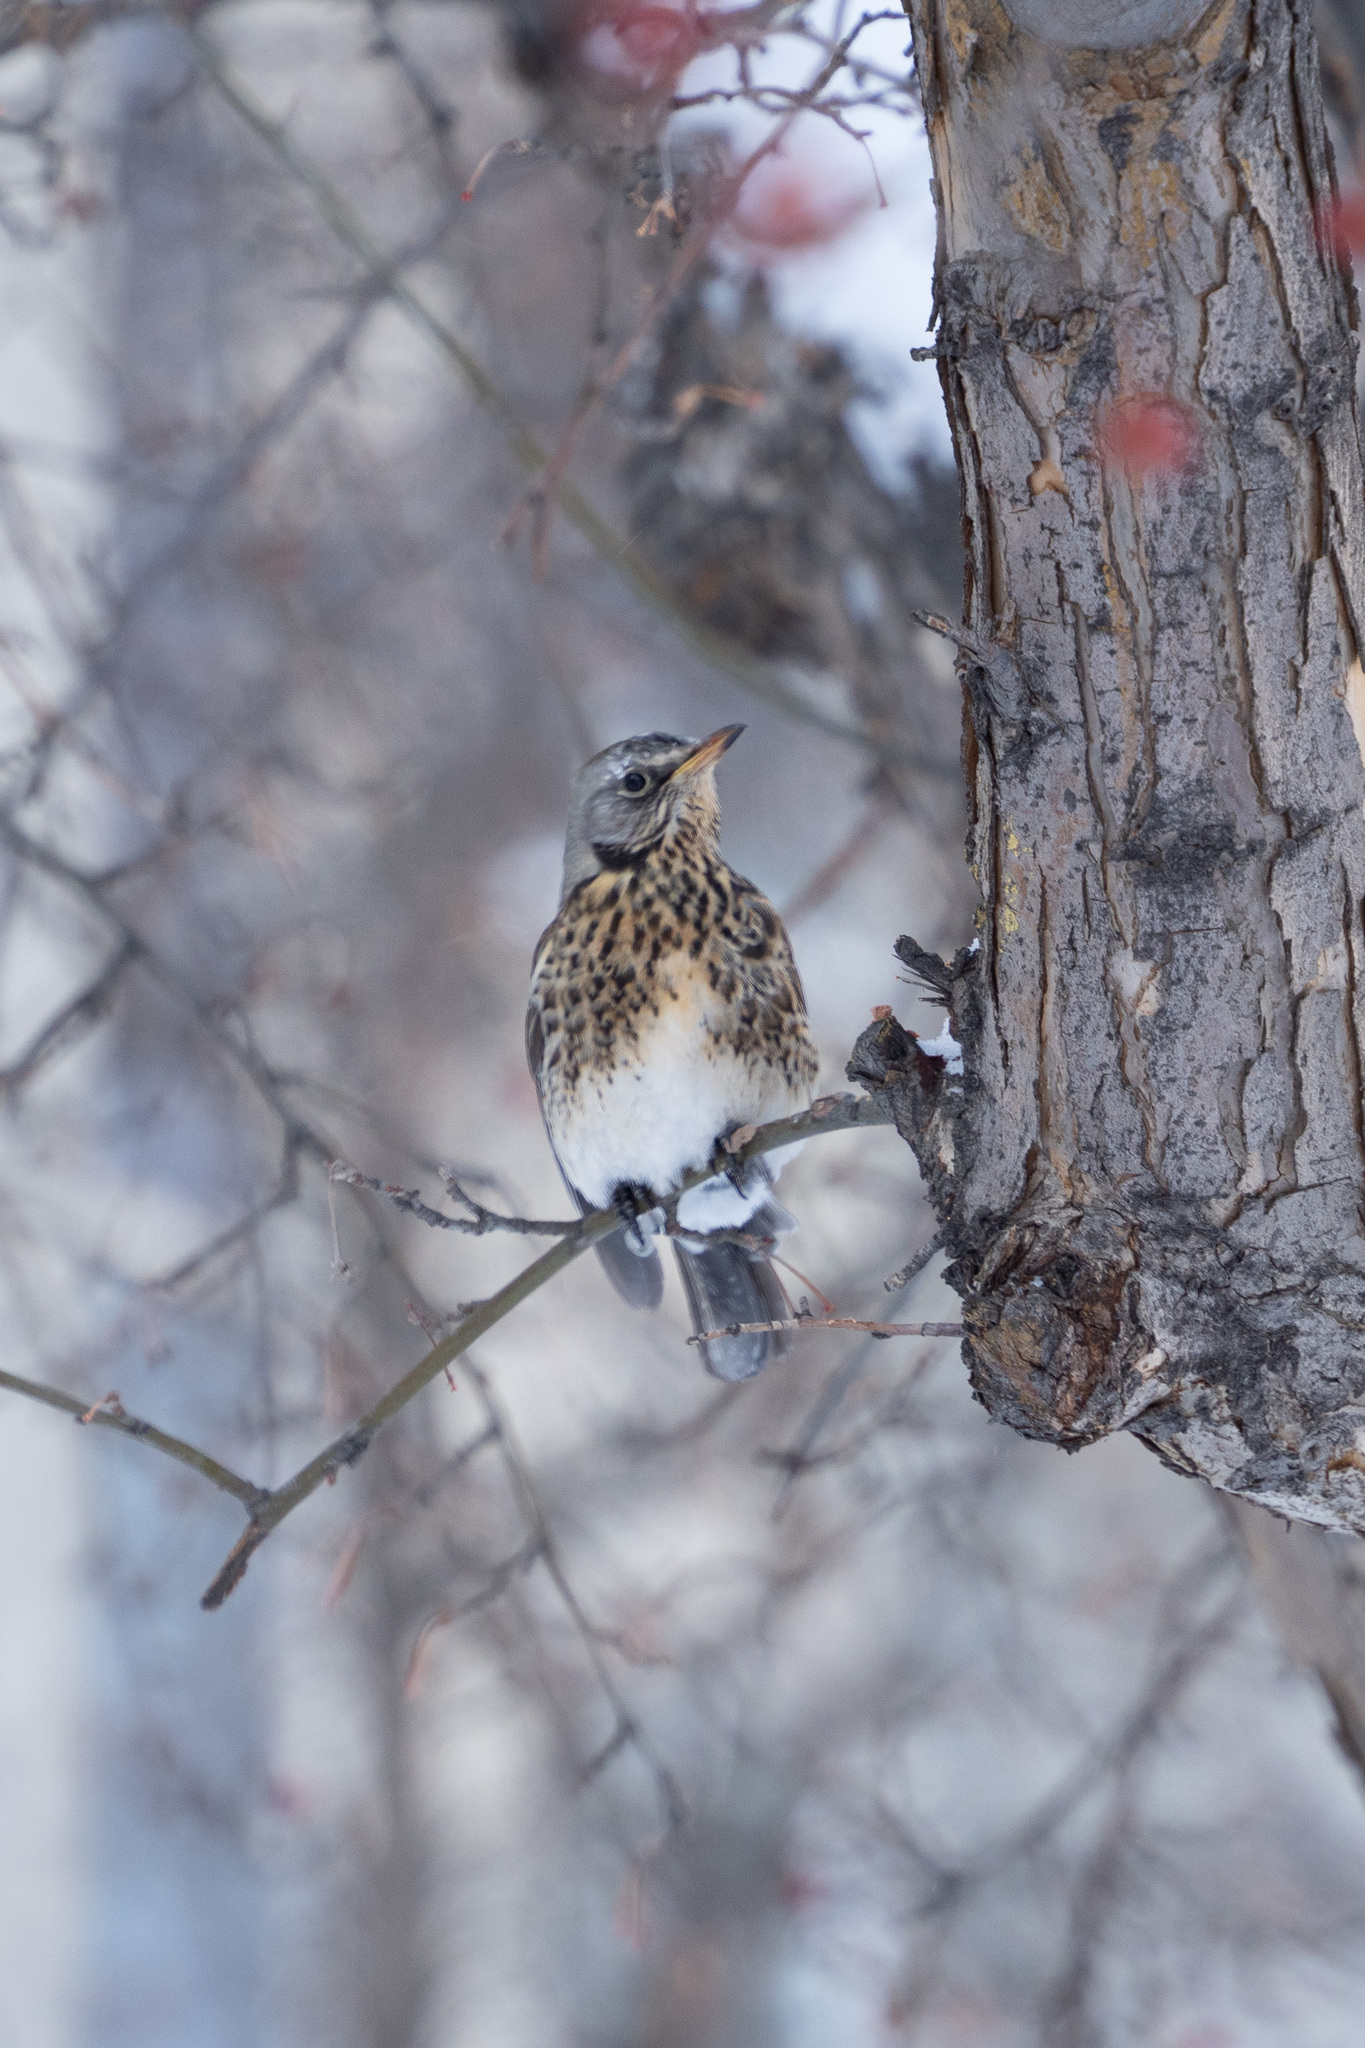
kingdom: Animalia
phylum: Chordata
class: Aves
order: Passeriformes
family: Turdidae
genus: Turdus
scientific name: Turdus pilaris
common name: Fieldfare
